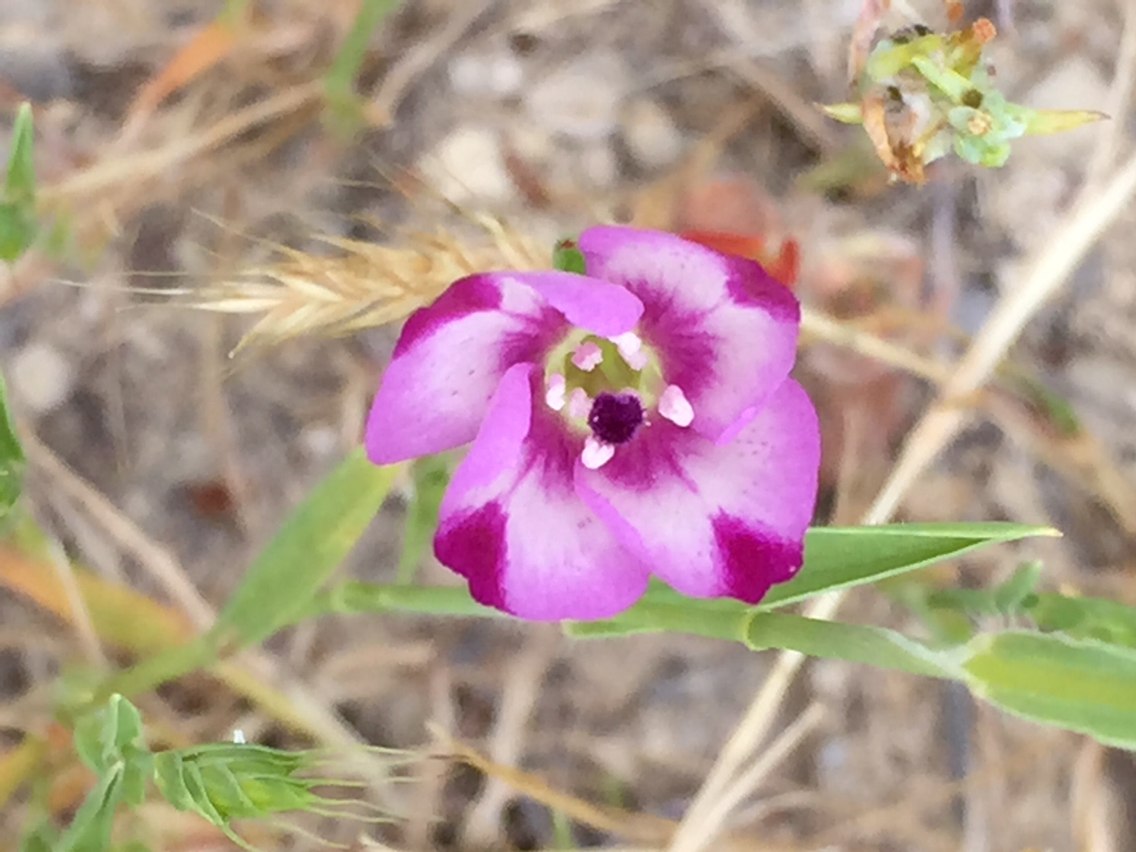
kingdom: Plantae
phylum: Tracheophyta
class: Magnoliopsida
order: Myrtales
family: Onagraceae
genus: Clarkia
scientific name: Clarkia purpurea
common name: Purple clarkia
